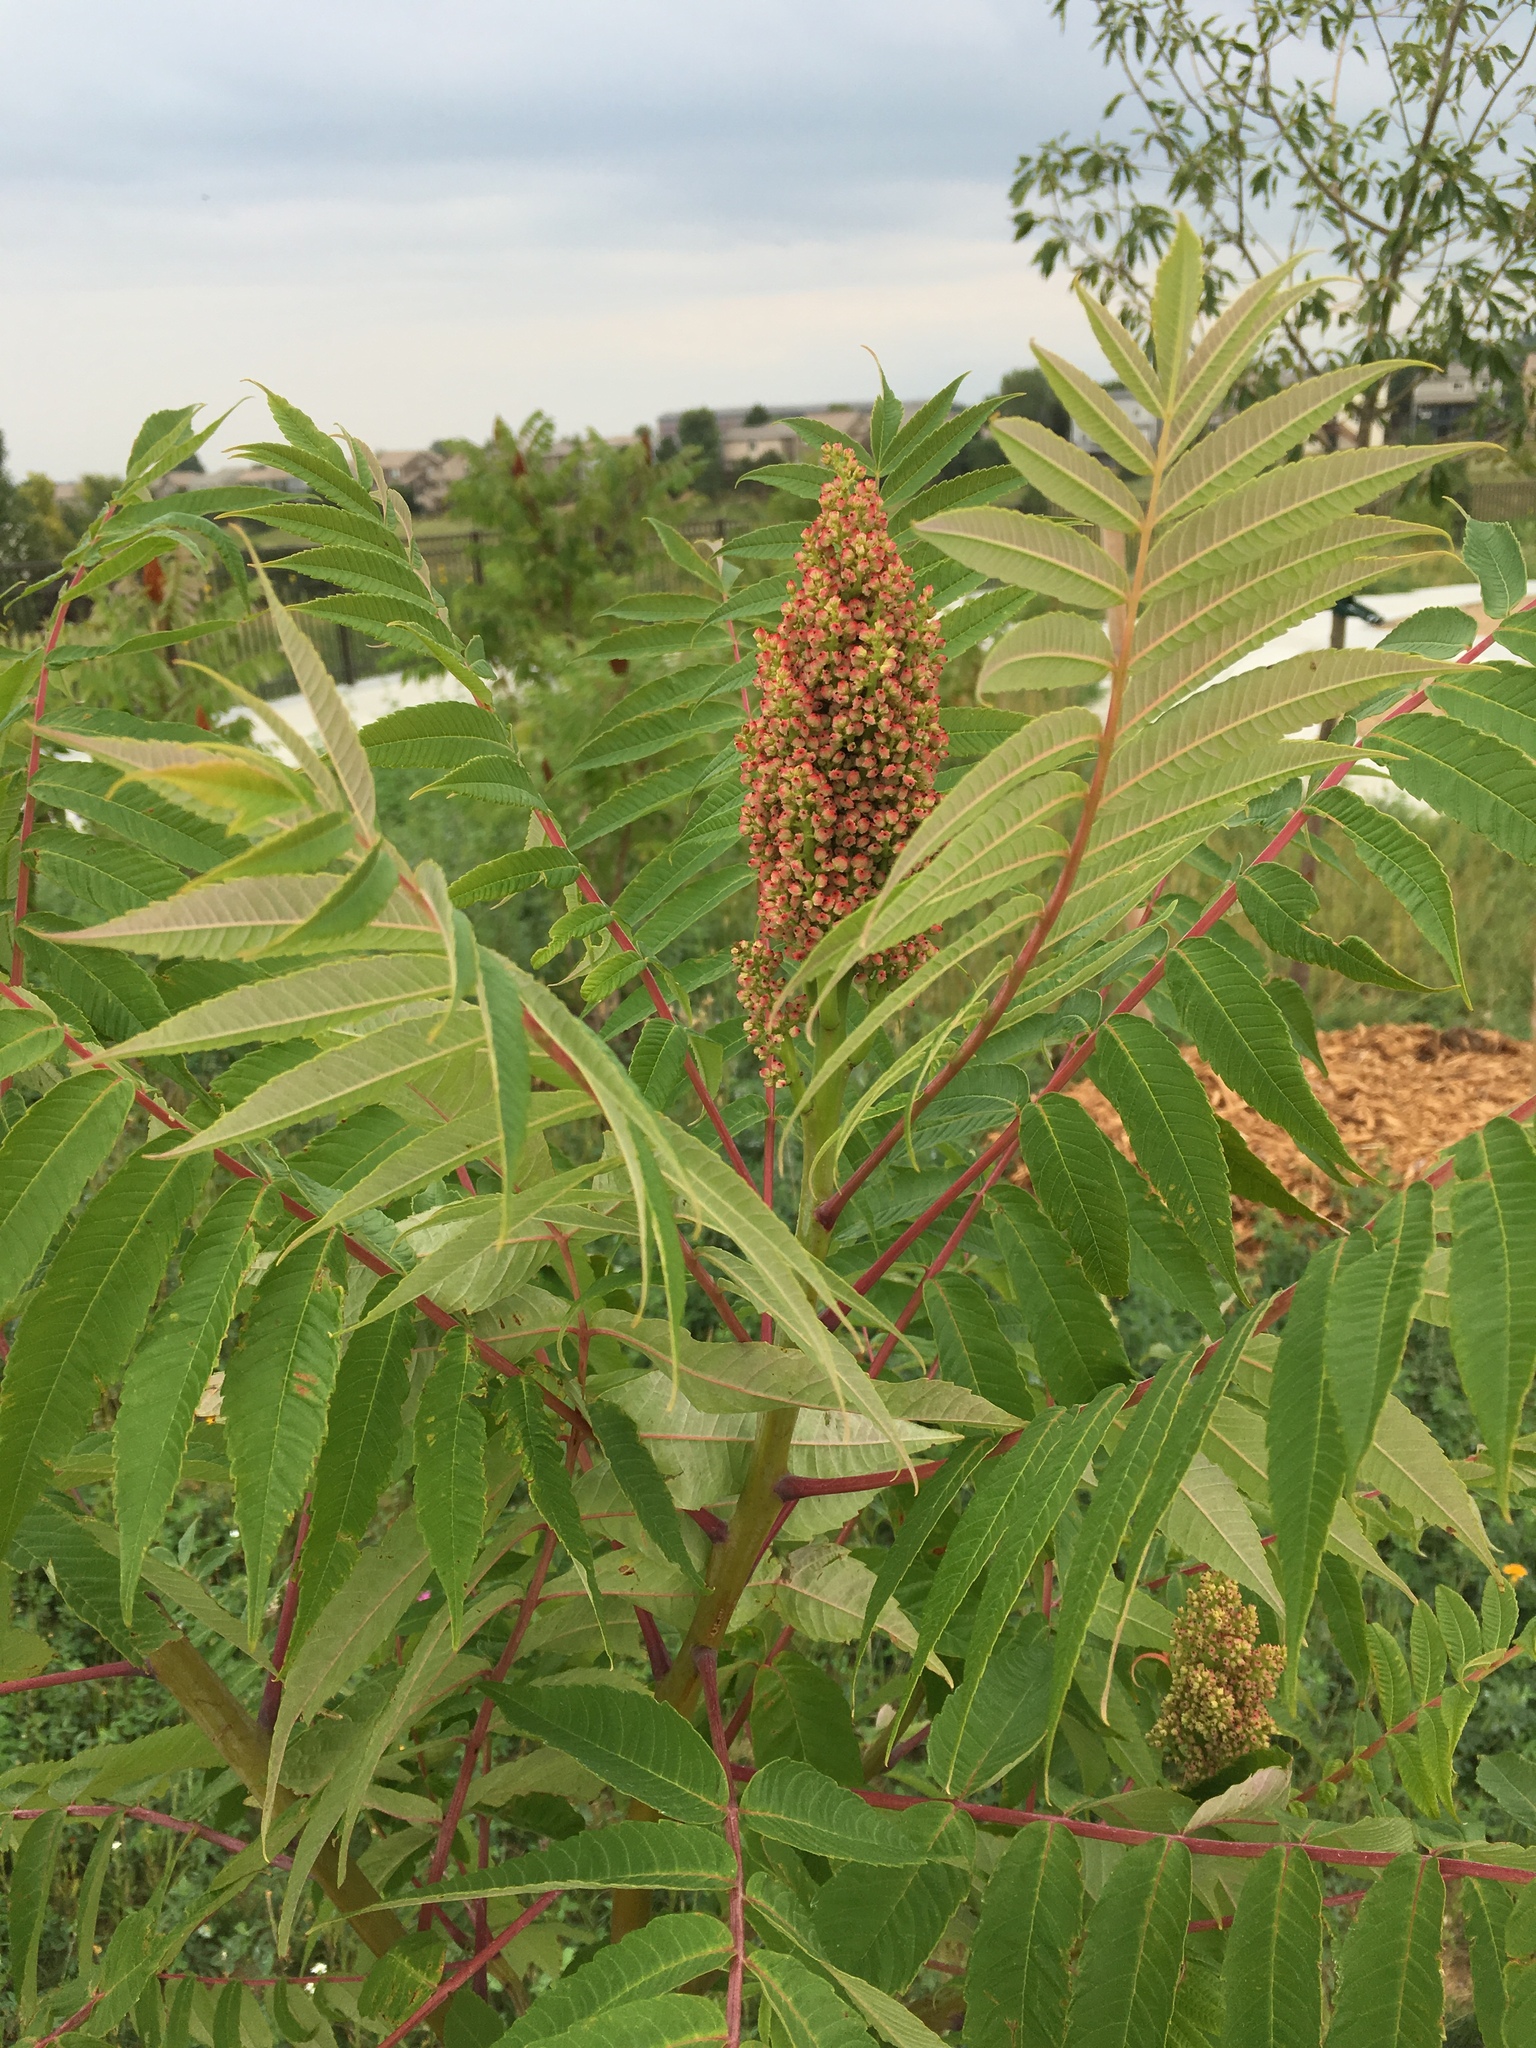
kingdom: Plantae
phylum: Tracheophyta
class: Magnoliopsida
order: Sapindales
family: Anacardiaceae
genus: Rhus
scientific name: Rhus glabra
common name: Scarlet sumac
